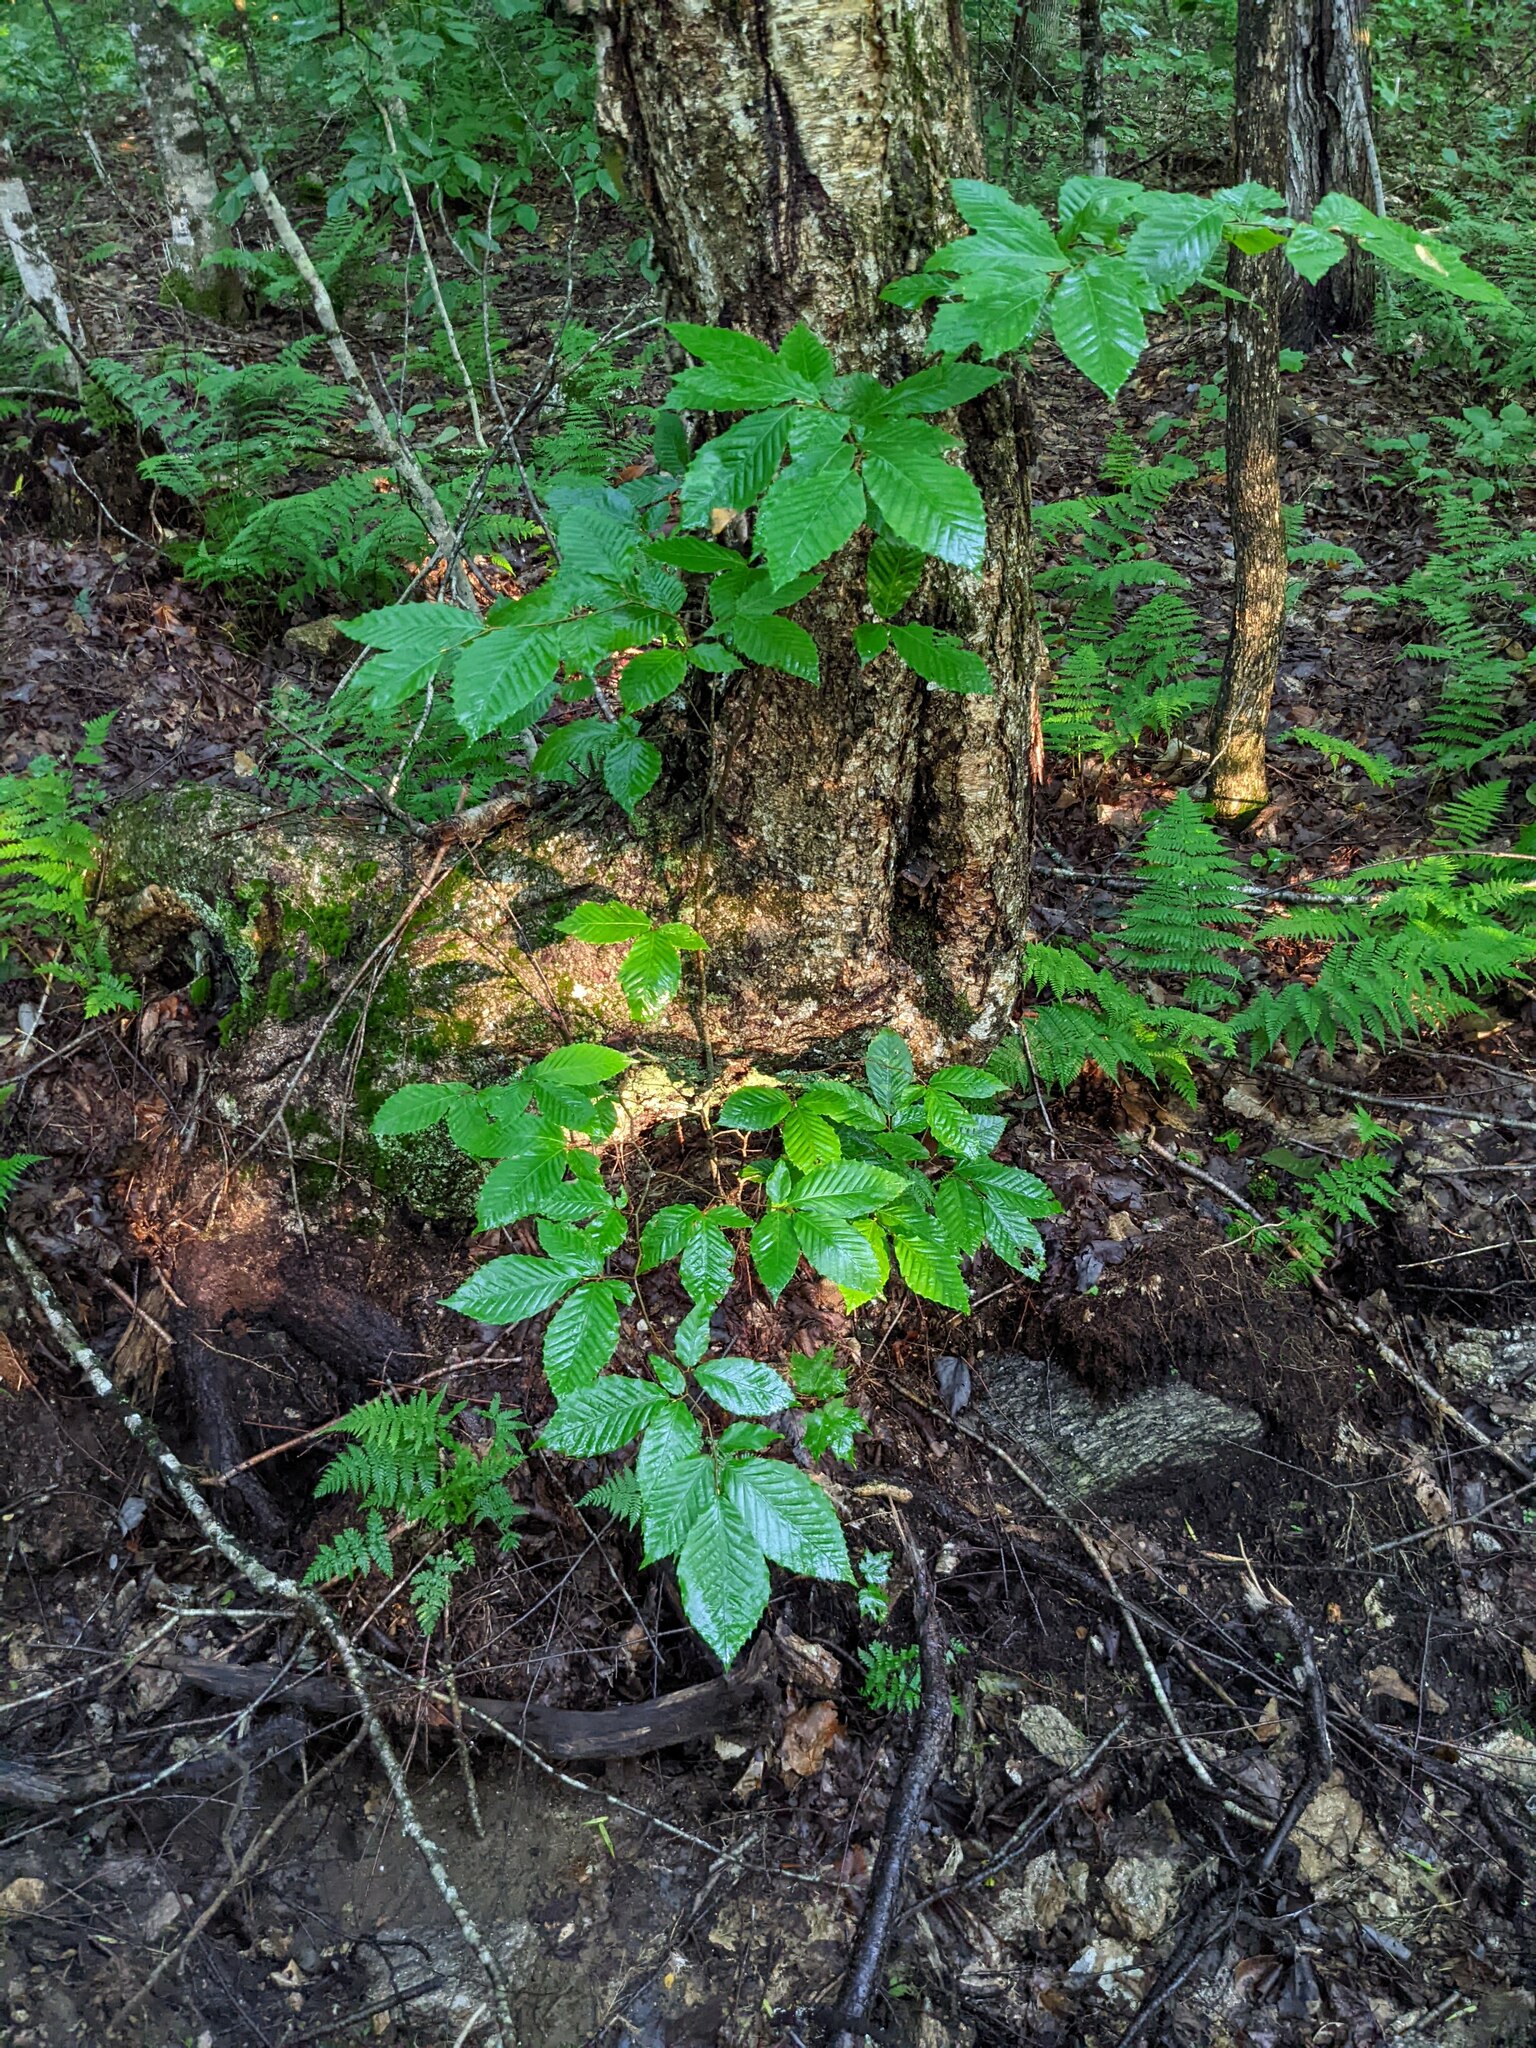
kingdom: Plantae
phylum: Tracheophyta
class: Magnoliopsida
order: Fagales
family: Fagaceae
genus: Fagus
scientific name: Fagus grandifolia
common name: American beech
